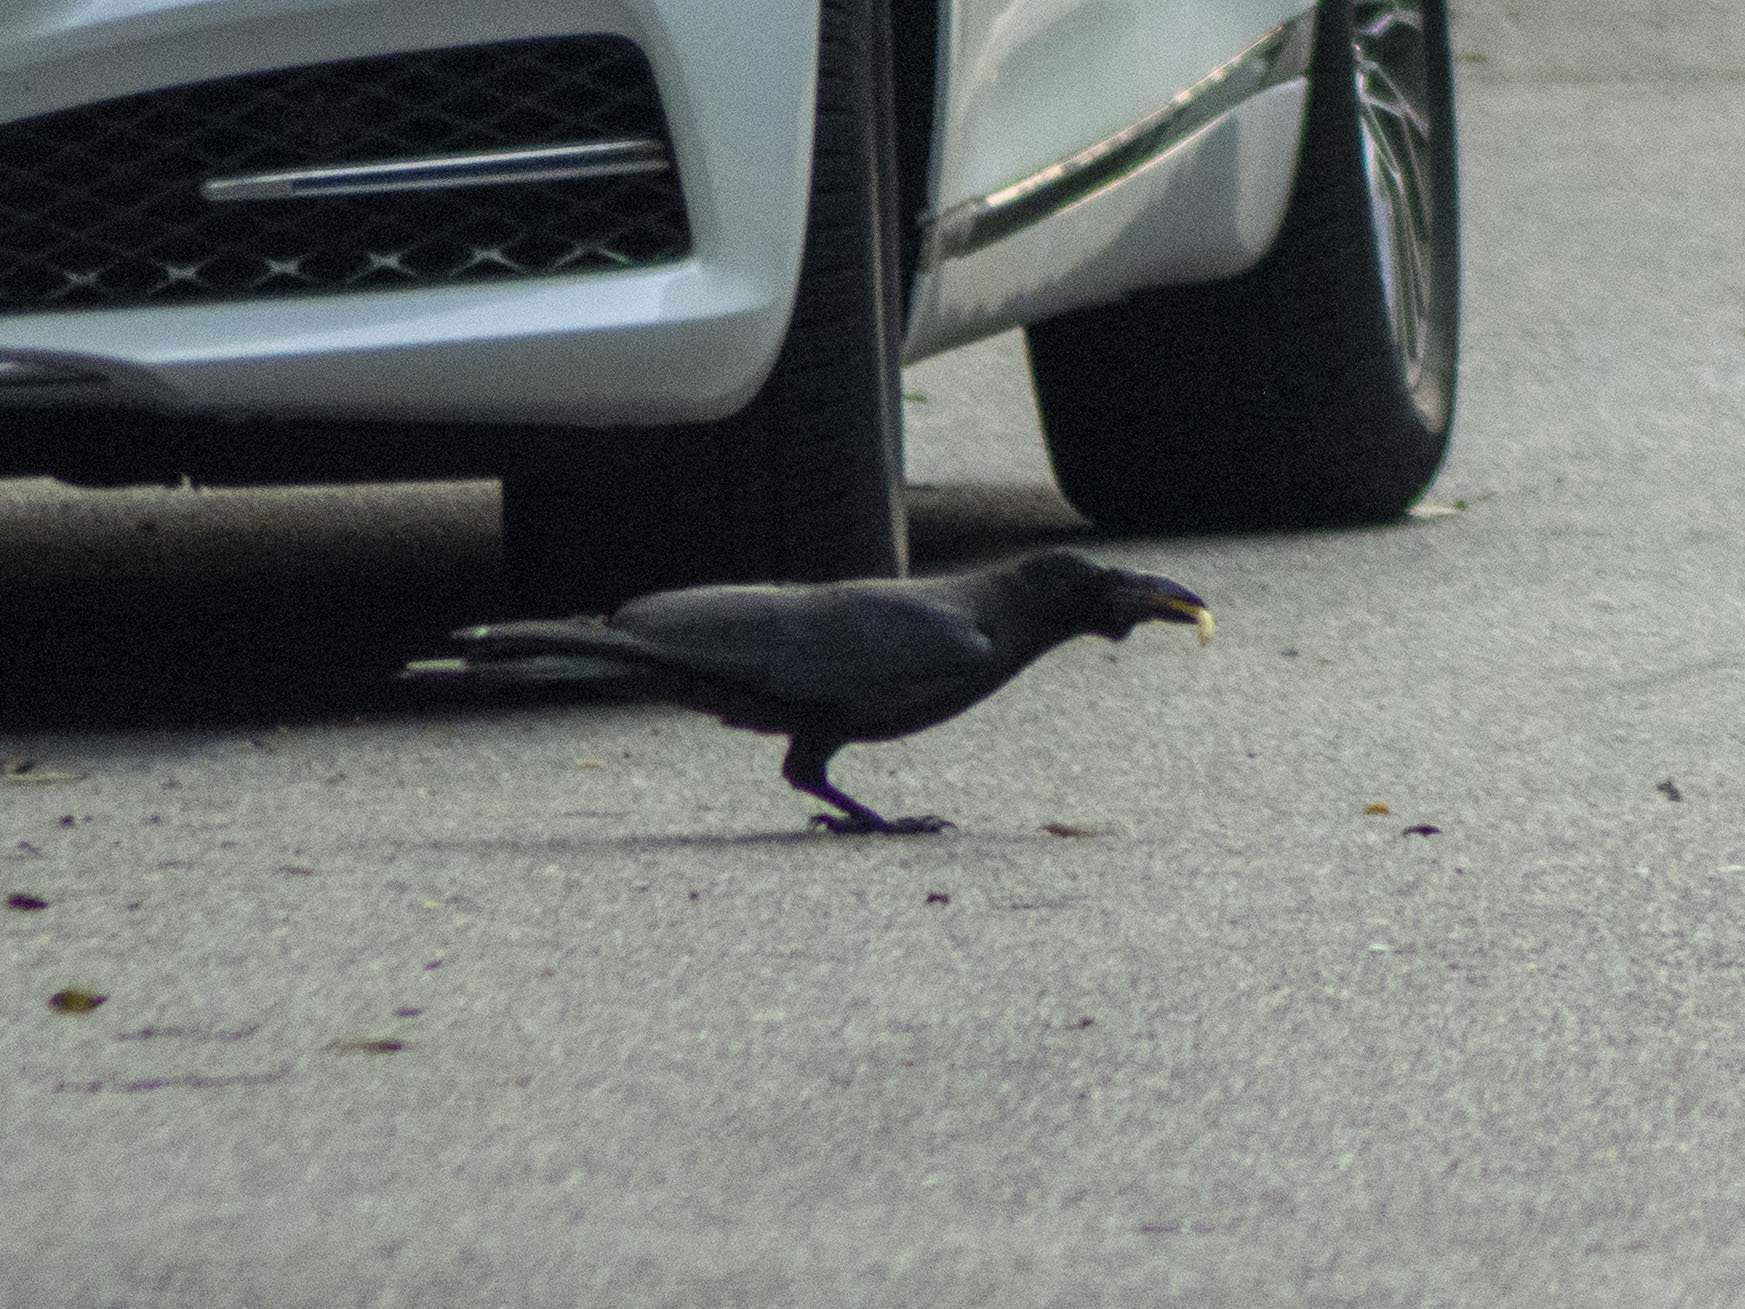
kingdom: Animalia
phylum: Chordata
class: Aves
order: Passeriformes
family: Corvidae
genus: Corvus
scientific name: Corvus macrorhynchos
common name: Large-billed crow
